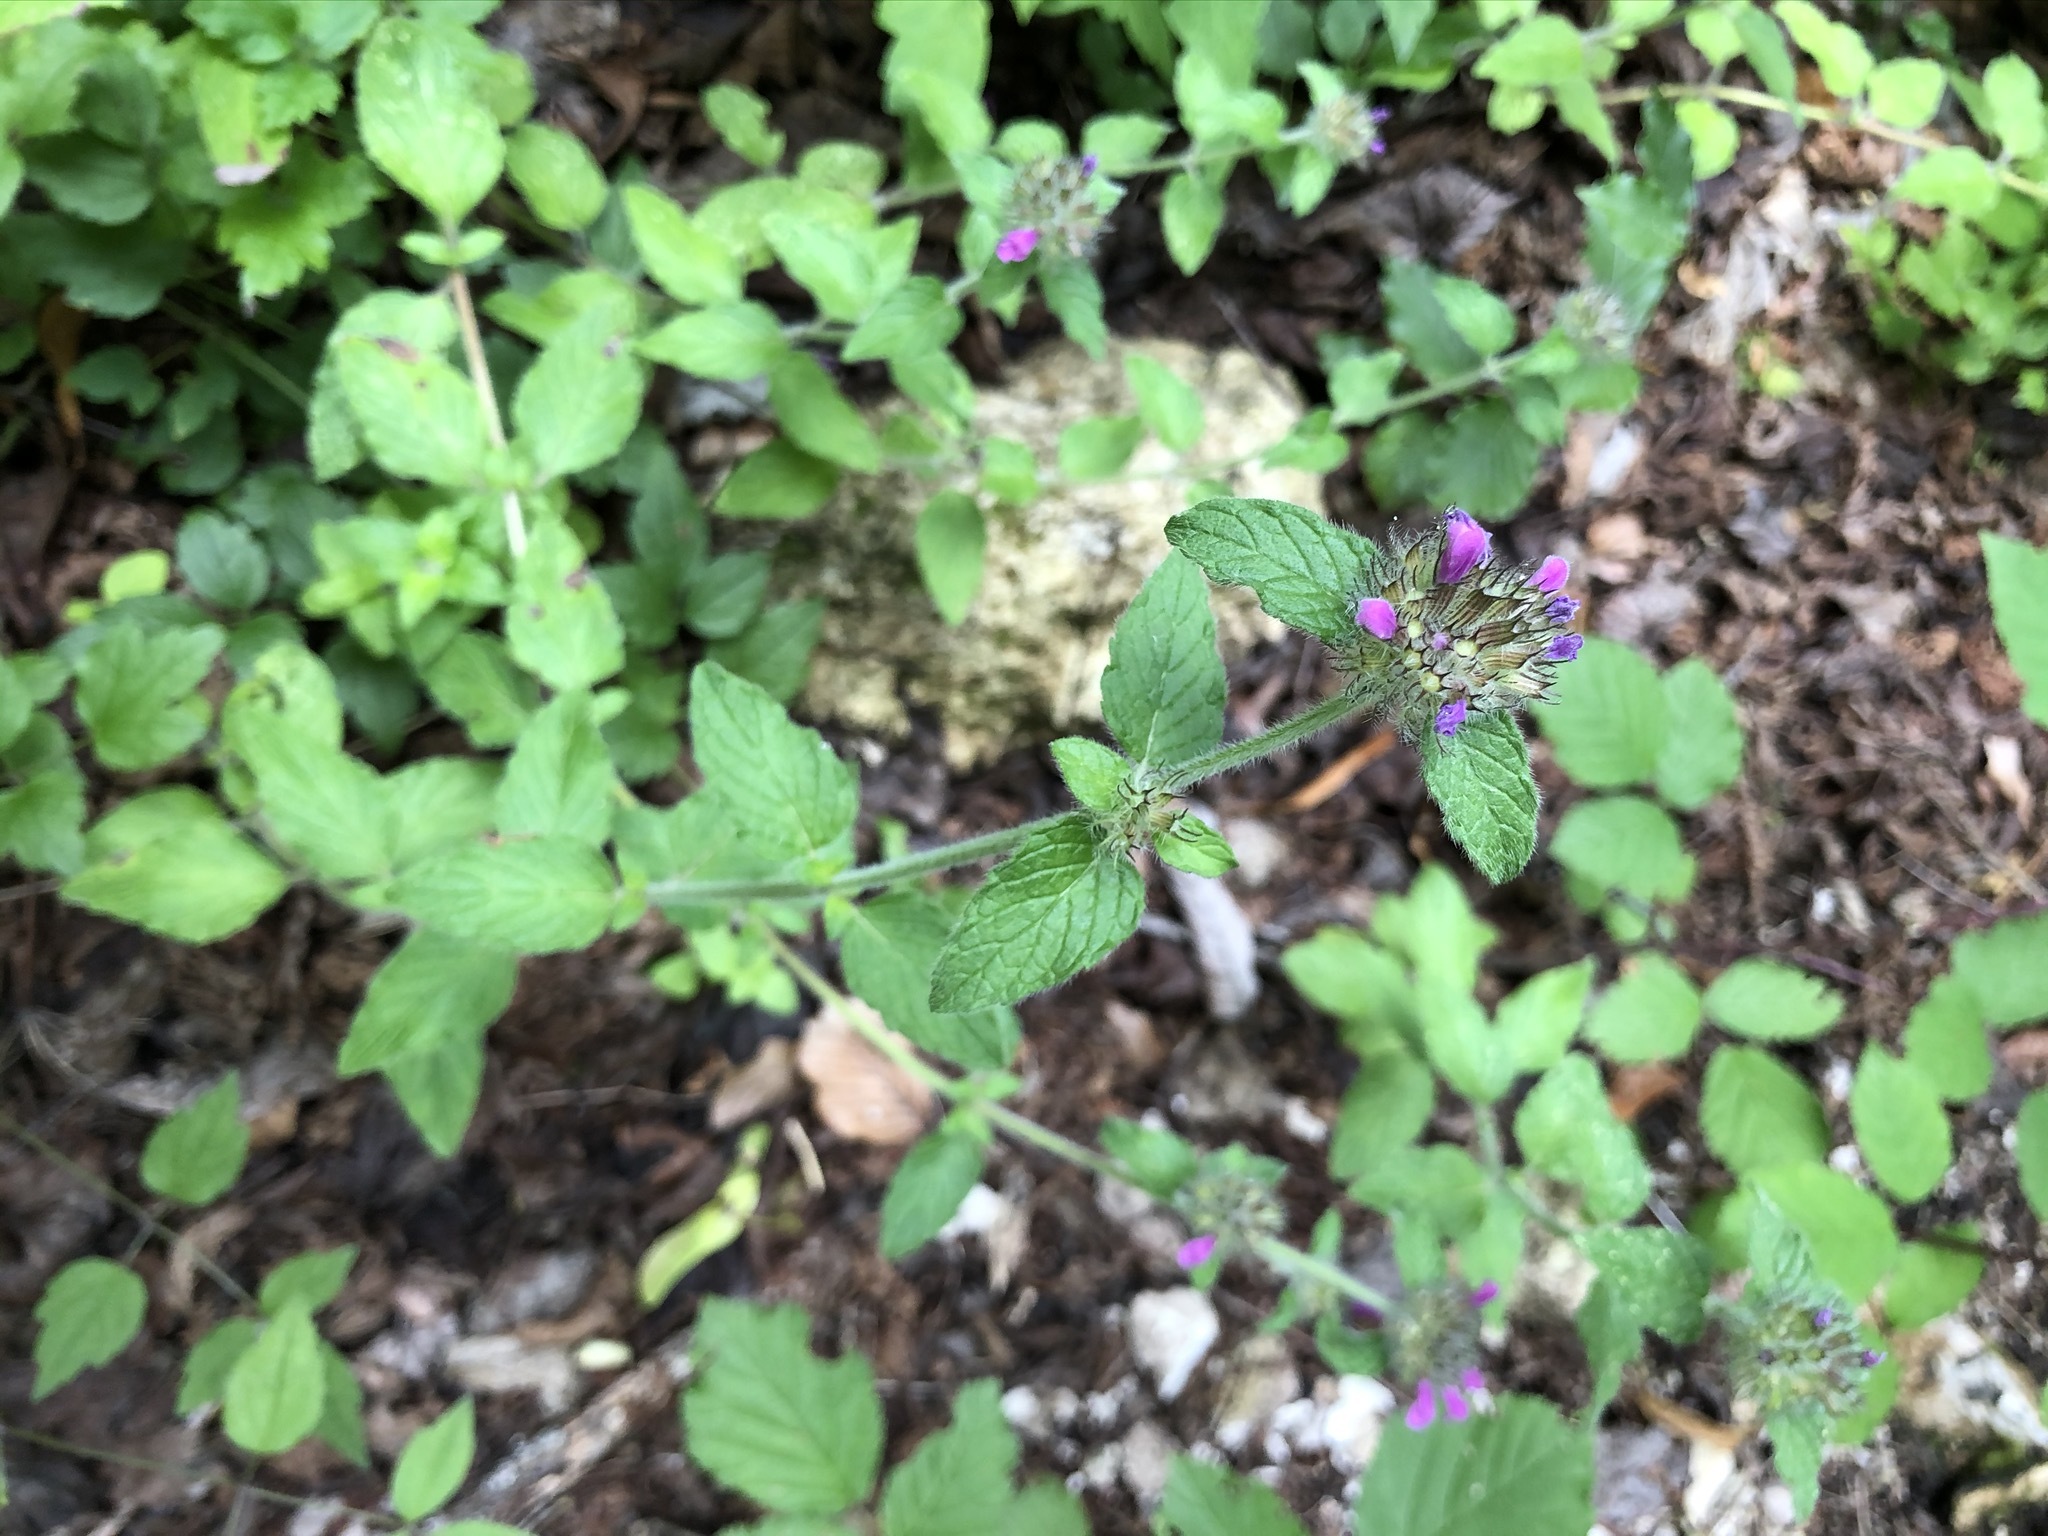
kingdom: Plantae
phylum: Tracheophyta
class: Magnoliopsida
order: Lamiales
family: Lamiaceae
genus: Clinopodium
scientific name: Clinopodium vulgare
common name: Wild basil
